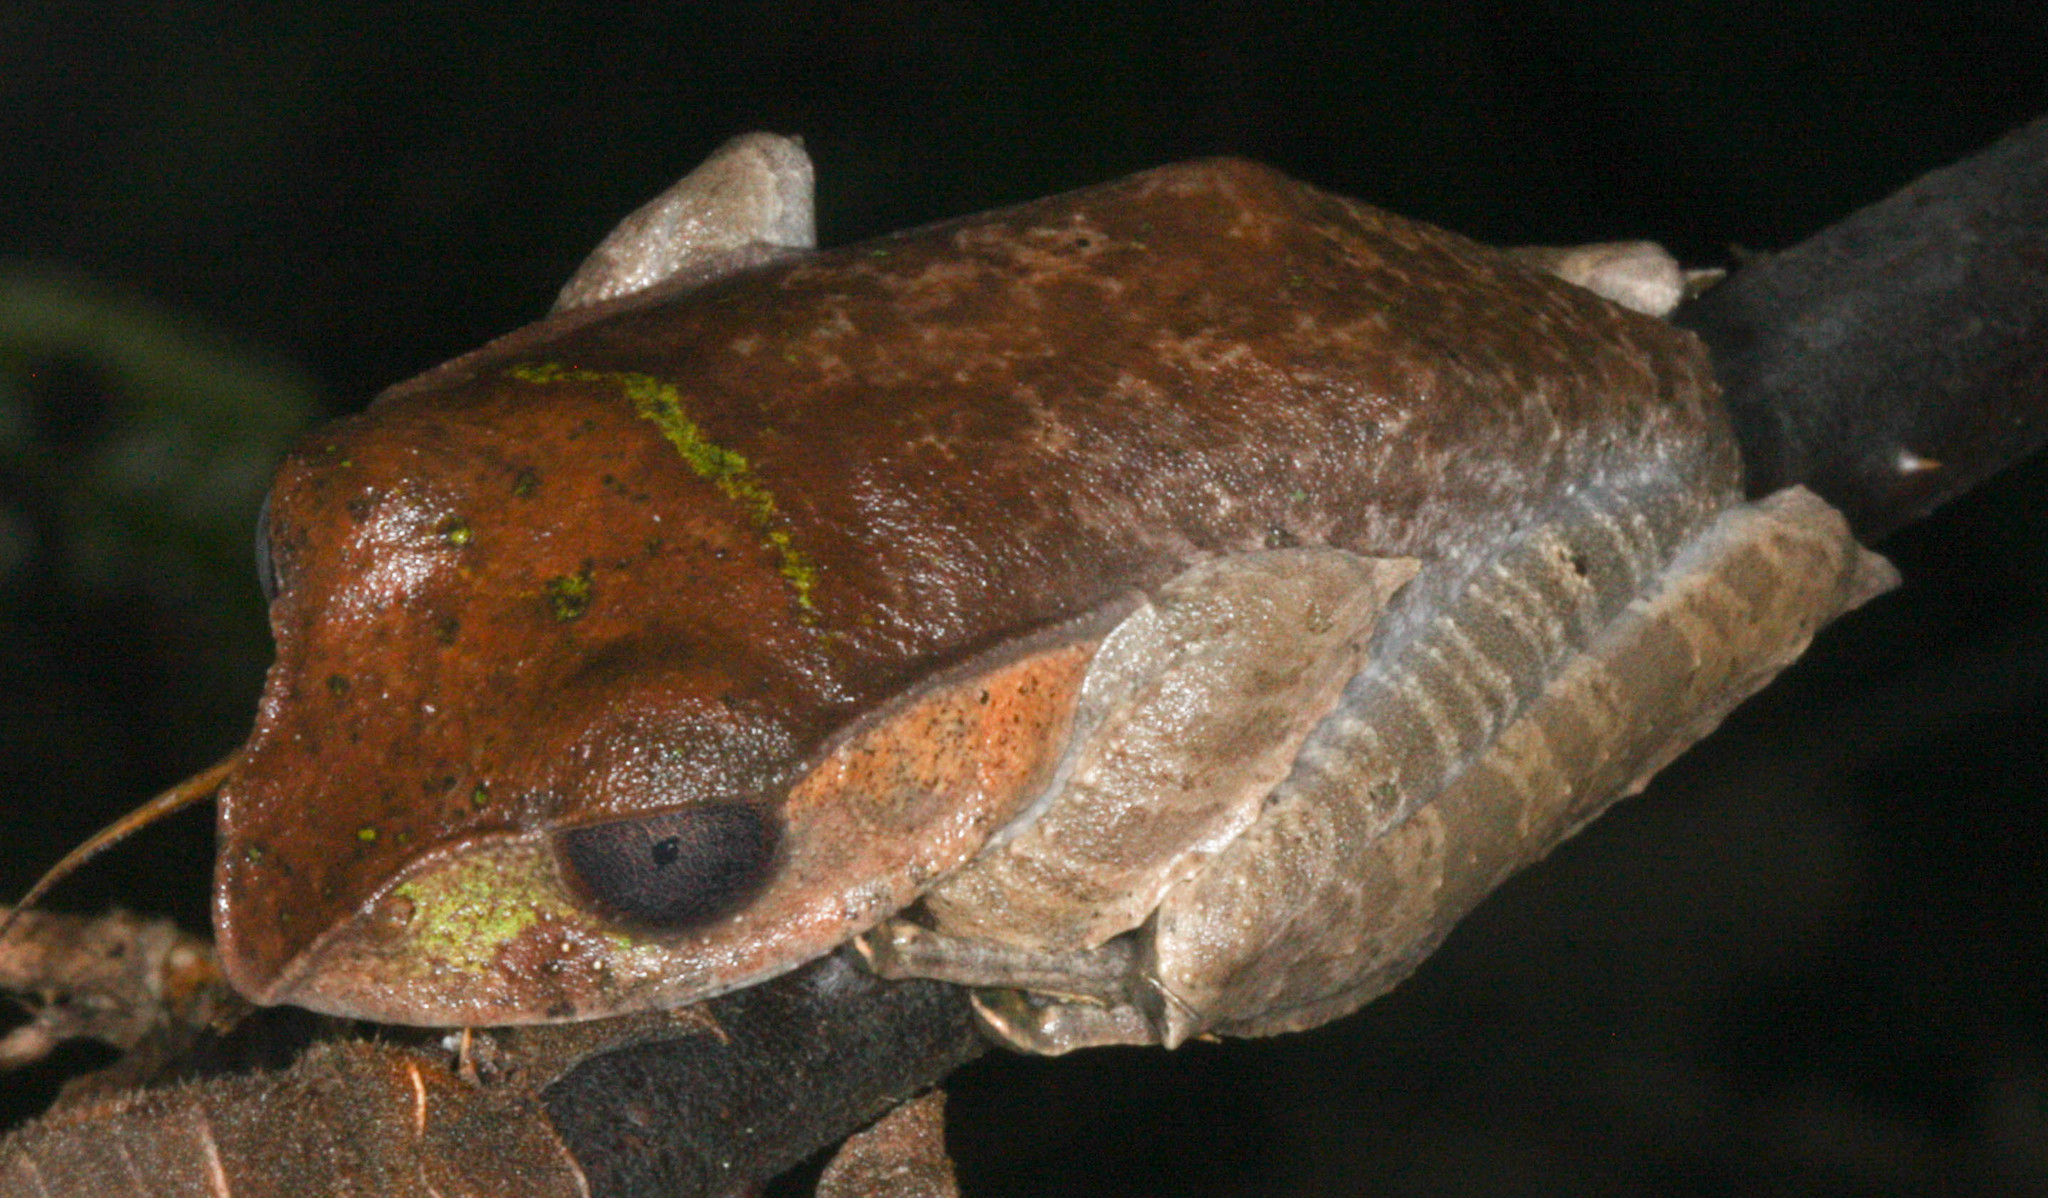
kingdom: Animalia
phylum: Chordata
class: Amphibia
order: Anura
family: Mantellidae
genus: Boophis
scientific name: Boophis madagascariensis
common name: Madagascar bright-eyed frog
